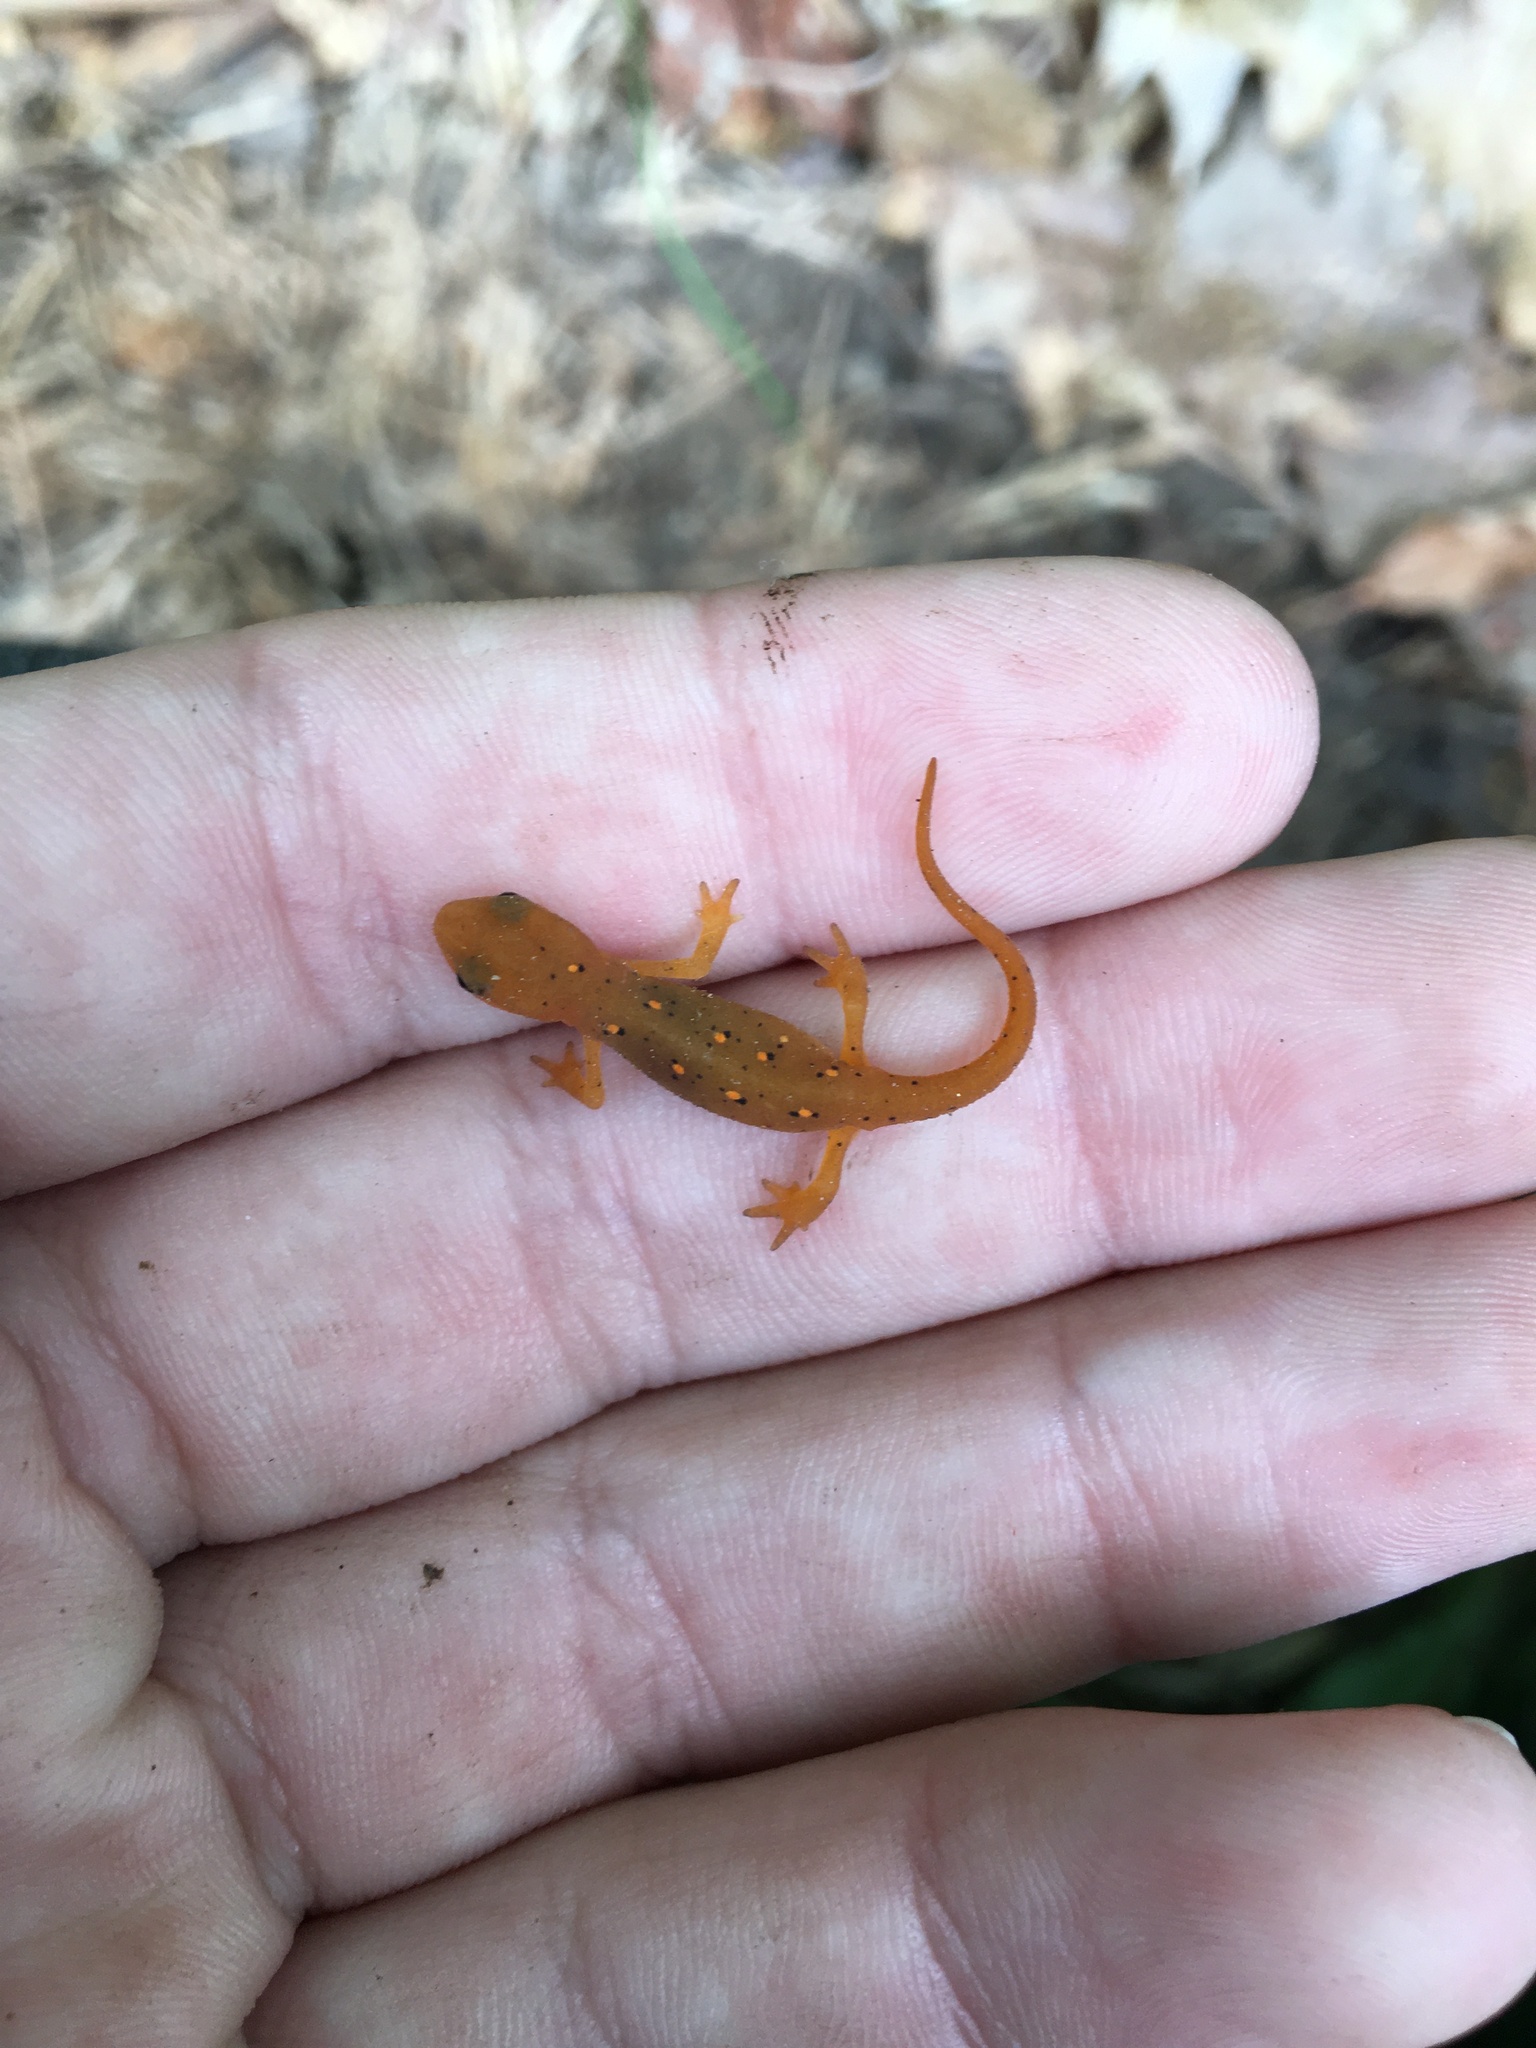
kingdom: Animalia
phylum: Chordata
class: Amphibia
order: Caudata
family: Salamandridae
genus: Notophthalmus
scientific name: Notophthalmus viridescens
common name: Eastern newt
